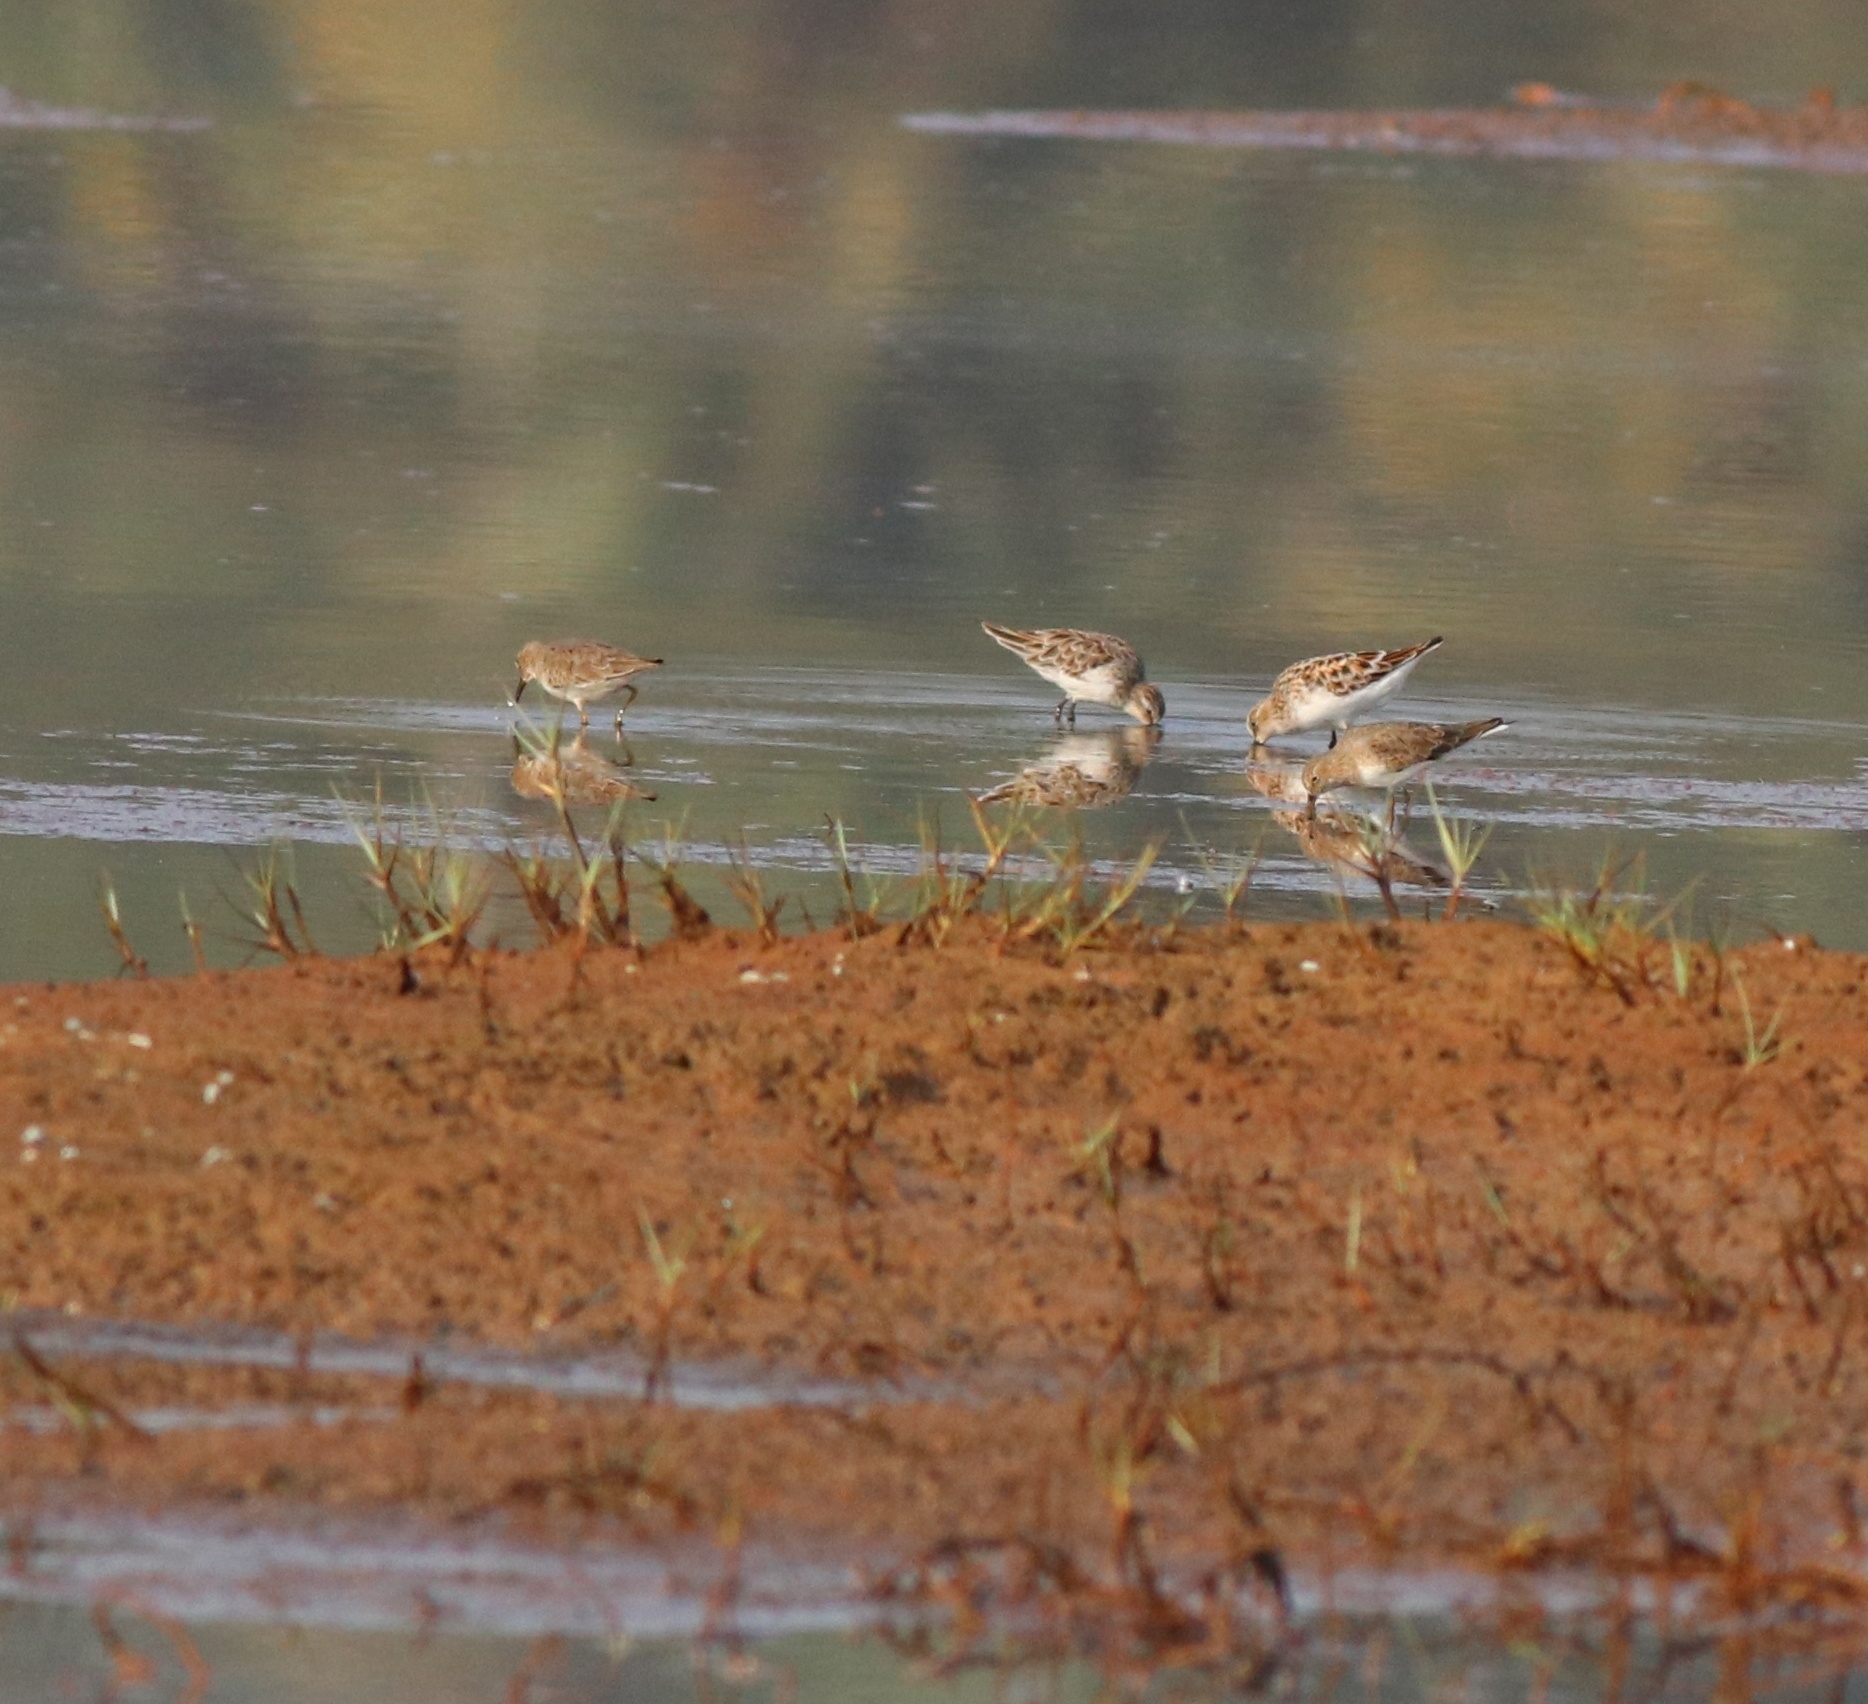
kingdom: Animalia
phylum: Chordata
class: Aves
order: Charadriiformes
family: Scolopacidae
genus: Calidris
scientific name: Calidris minuta
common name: Little stint
